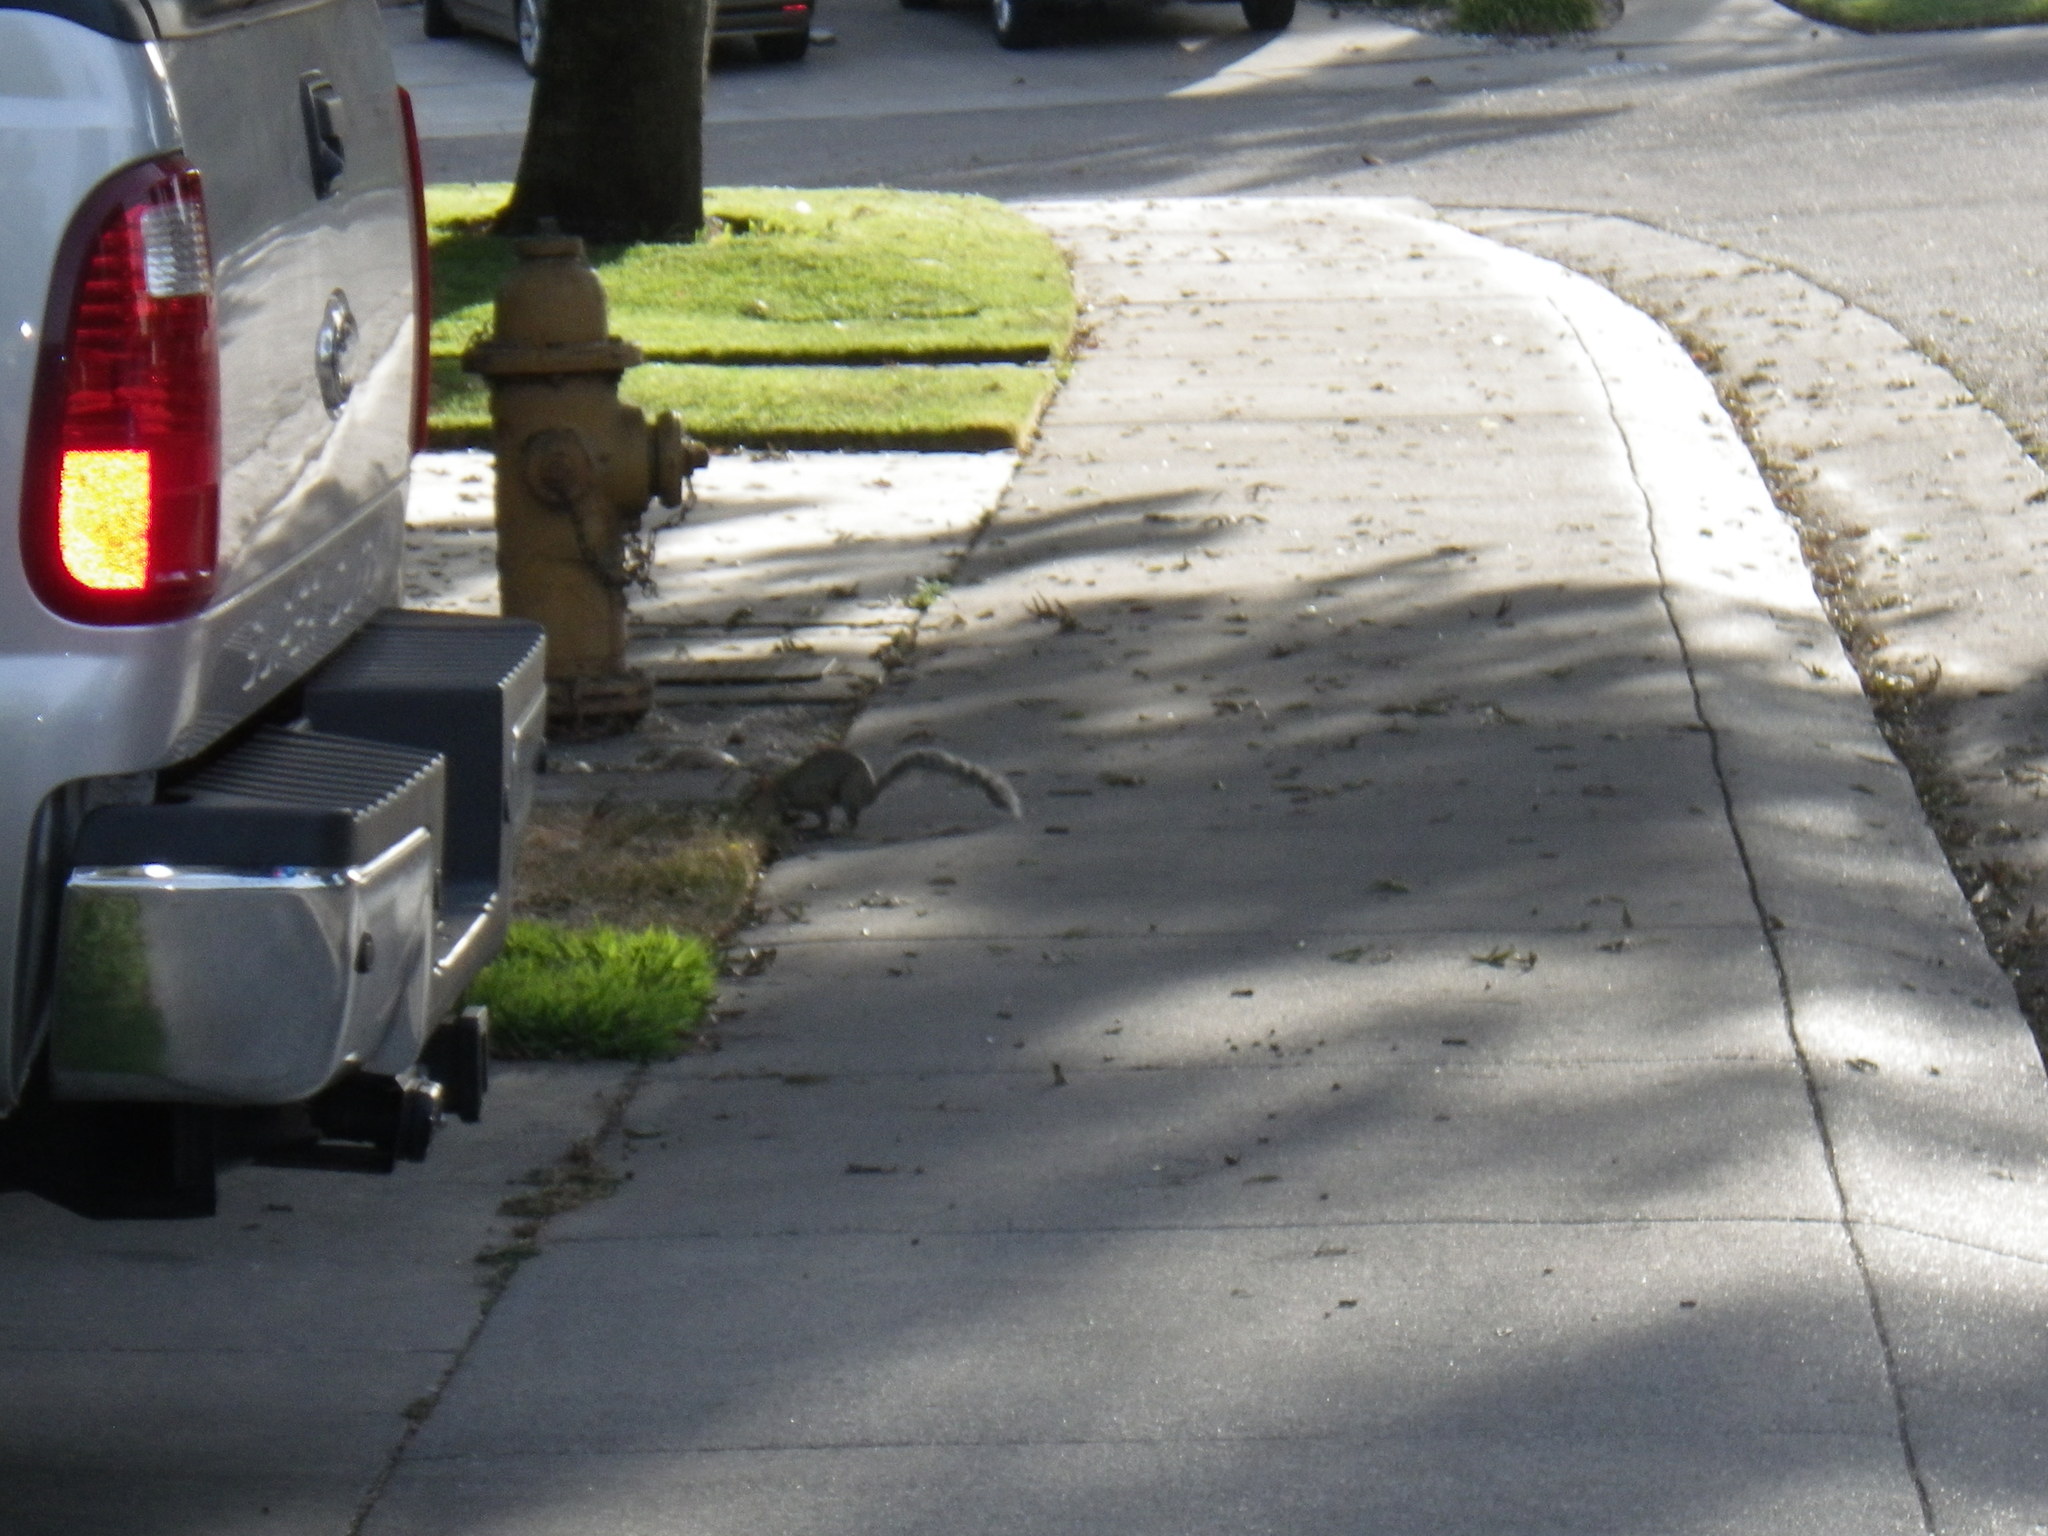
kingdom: Animalia
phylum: Chordata
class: Mammalia
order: Rodentia
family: Sciuridae
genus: Sciurus
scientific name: Sciurus carolinensis
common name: Eastern gray squirrel
